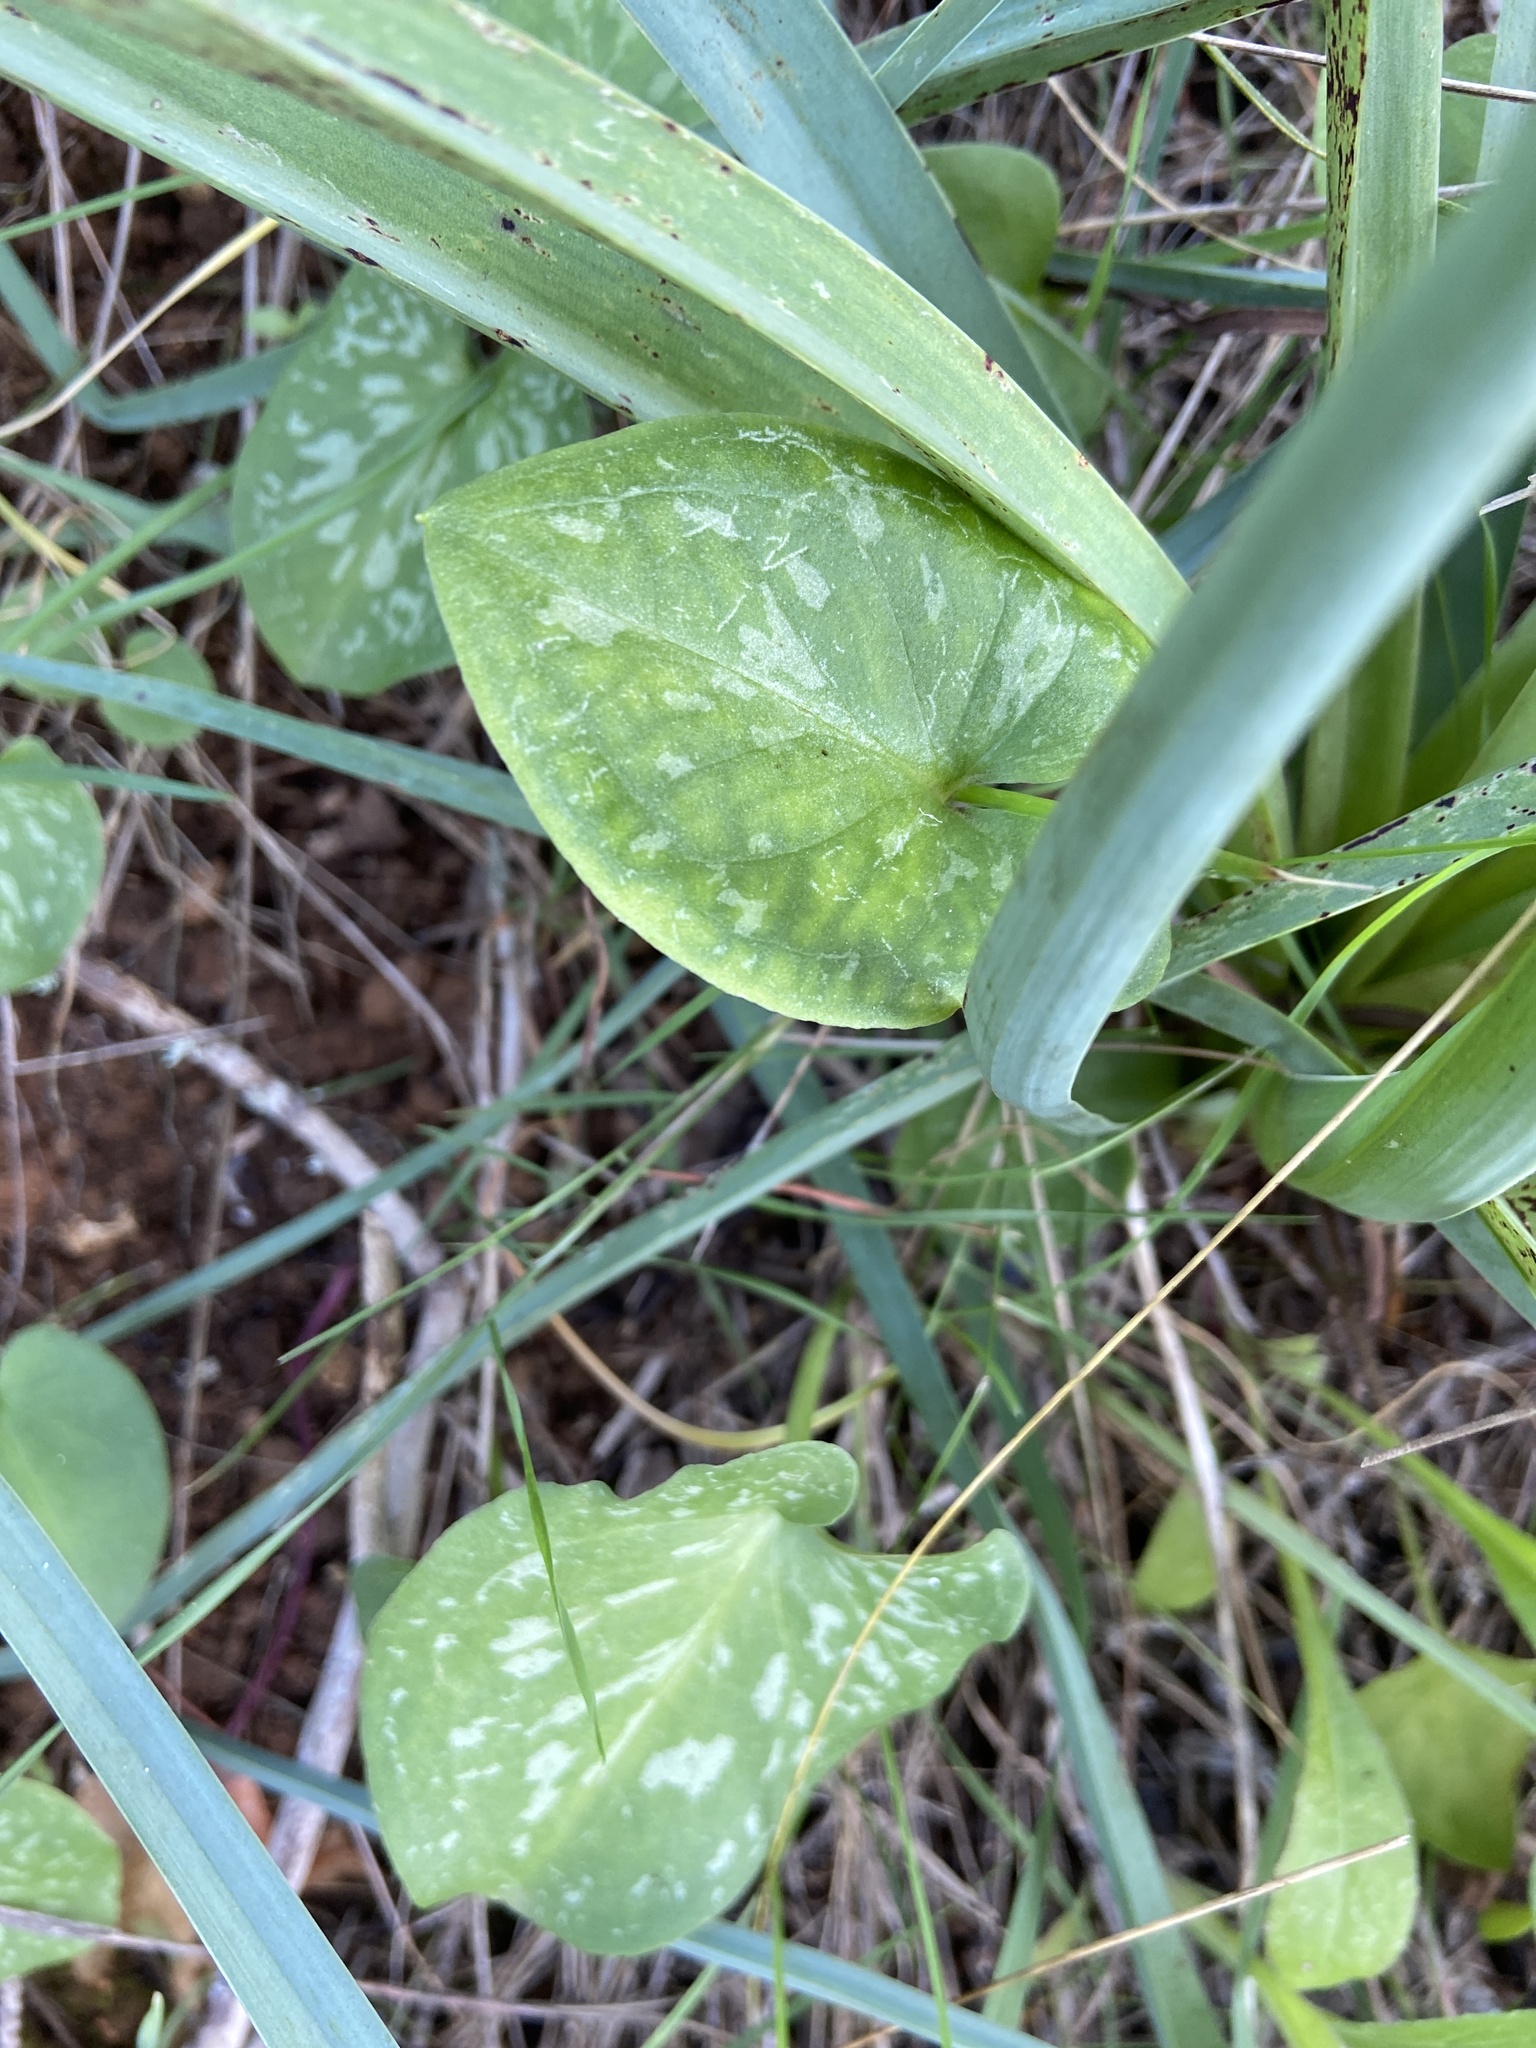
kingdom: Plantae
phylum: Tracheophyta
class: Liliopsida
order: Alismatales
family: Araceae
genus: Arisarum
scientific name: Arisarum vulgare
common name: Common arisarum
